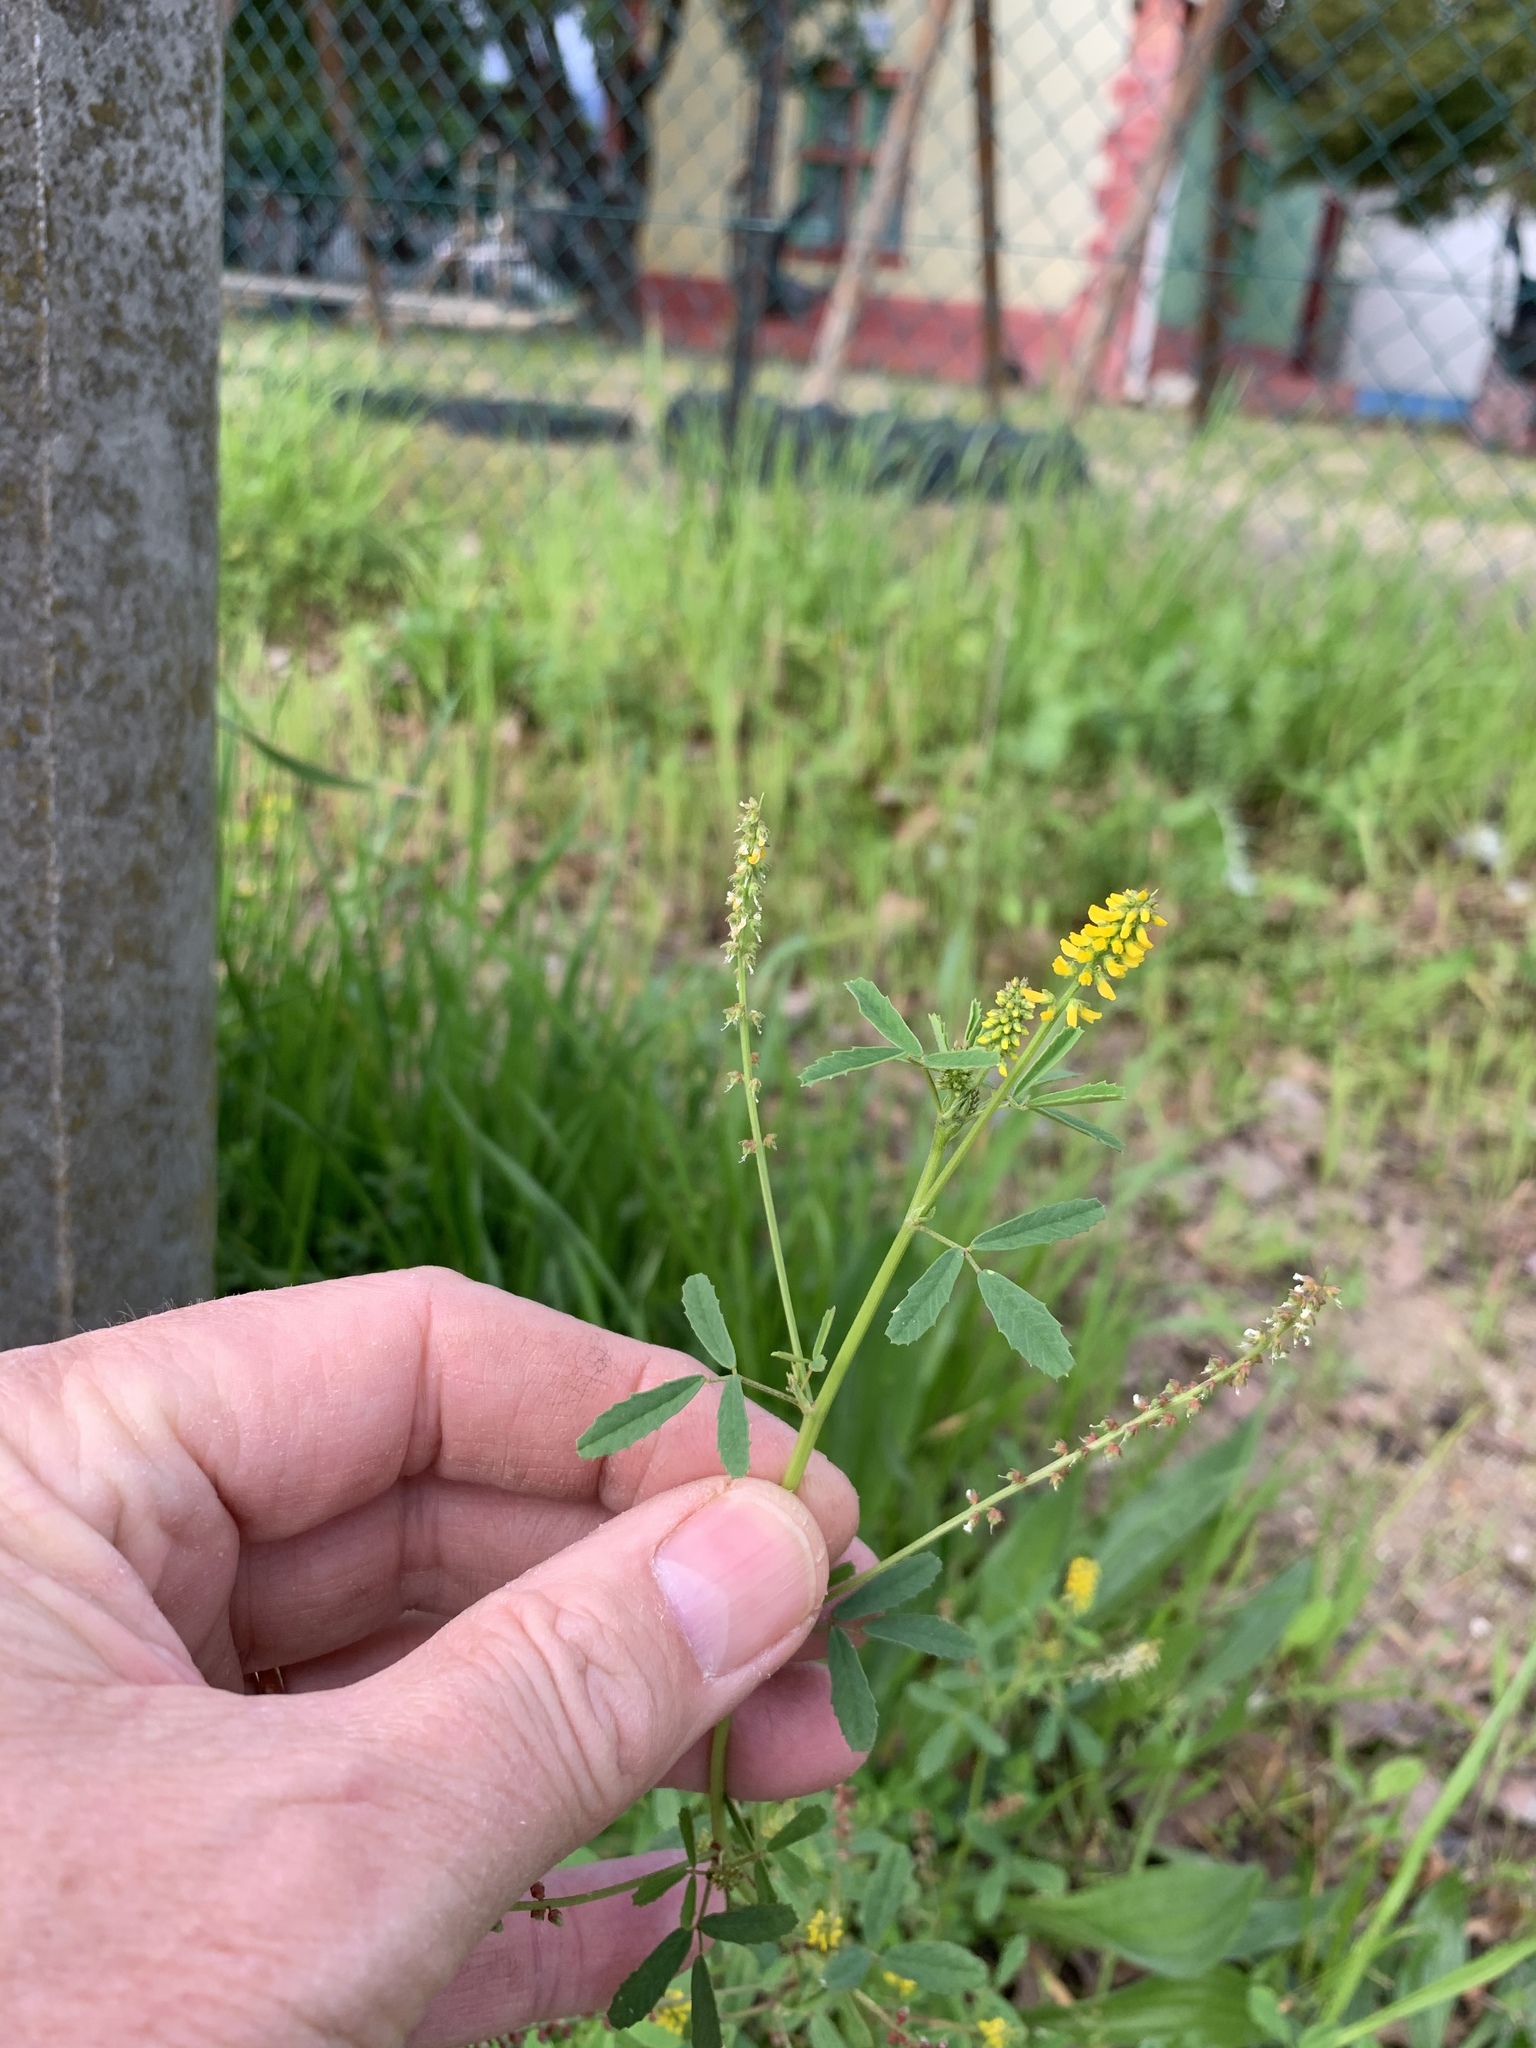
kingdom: Plantae
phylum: Tracheophyta
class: Magnoliopsida
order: Fabales
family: Fabaceae
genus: Melilotus
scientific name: Melilotus indicus
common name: Small melilot
